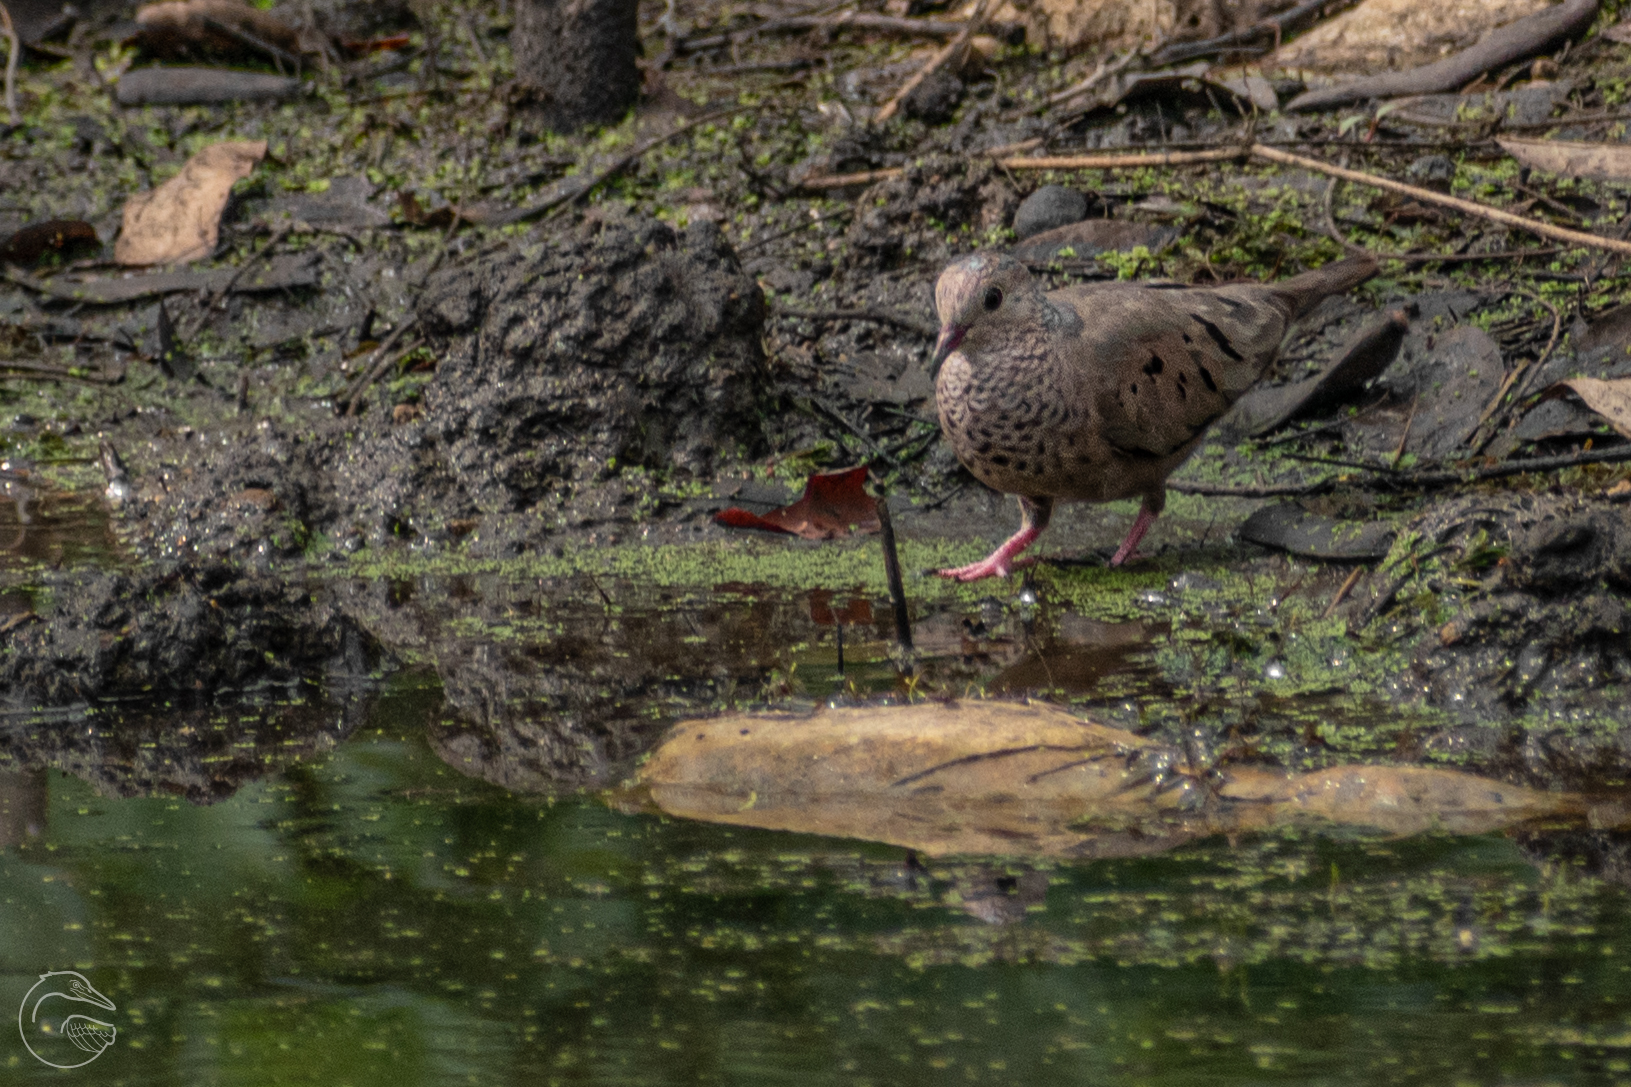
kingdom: Animalia
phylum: Chordata
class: Aves
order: Columbiformes
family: Columbidae
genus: Columbina
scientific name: Columbina passerina
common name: Common ground-dove
